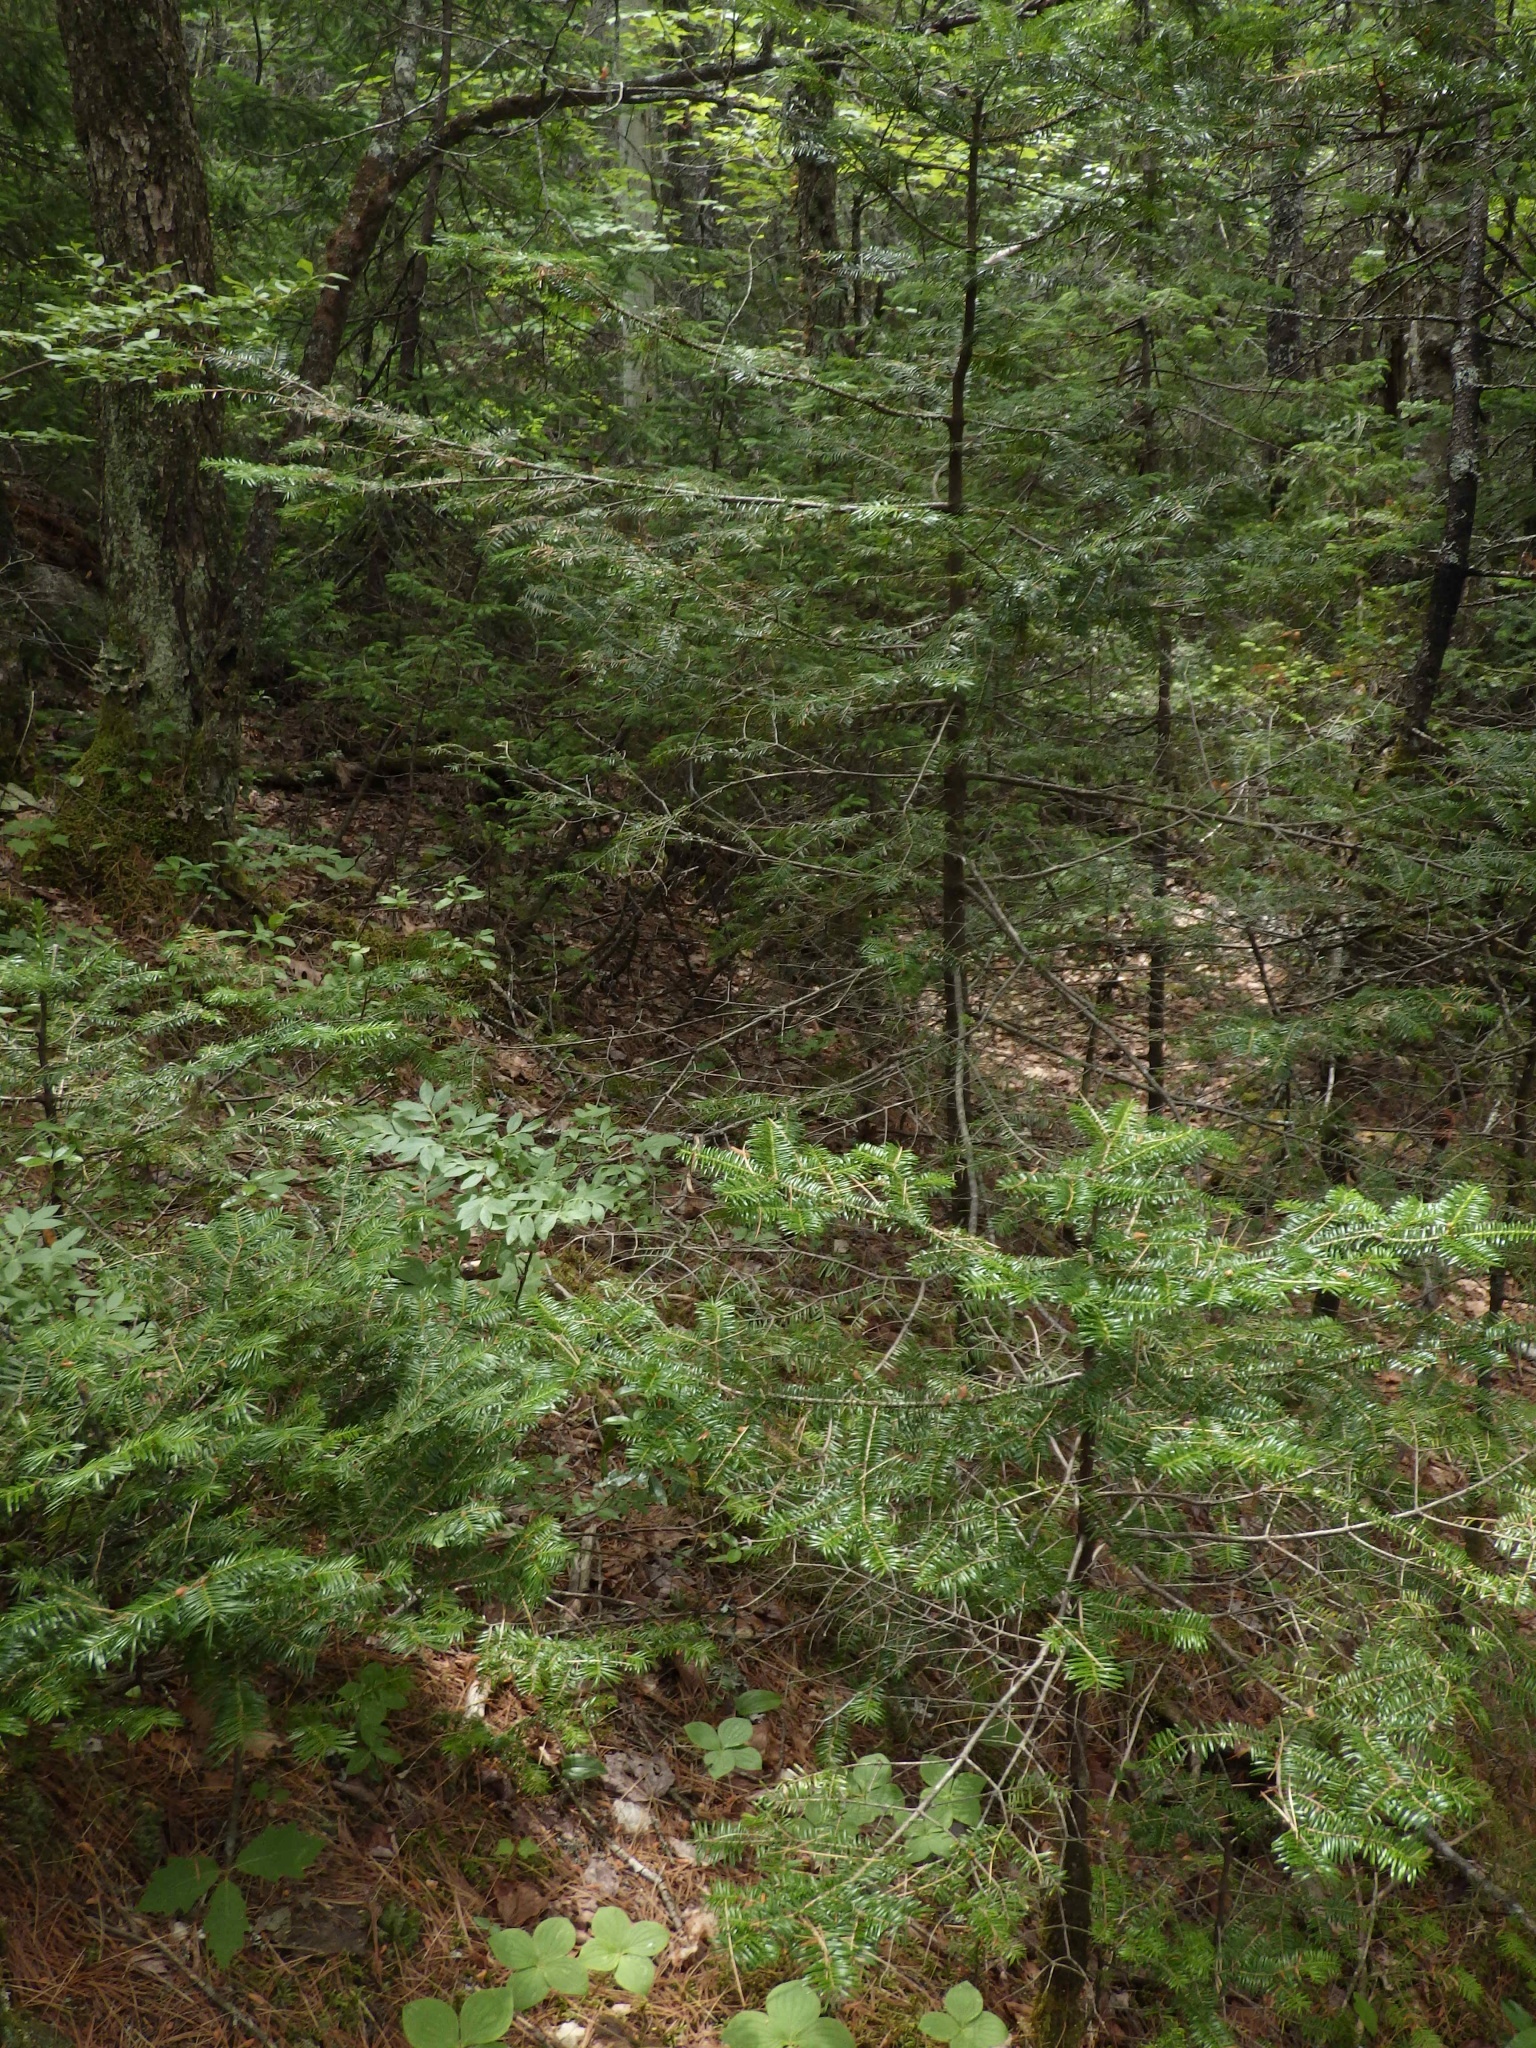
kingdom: Plantae
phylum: Tracheophyta
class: Pinopsida
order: Pinales
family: Pinaceae
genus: Abies
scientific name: Abies balsamea
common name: Balsam fir
